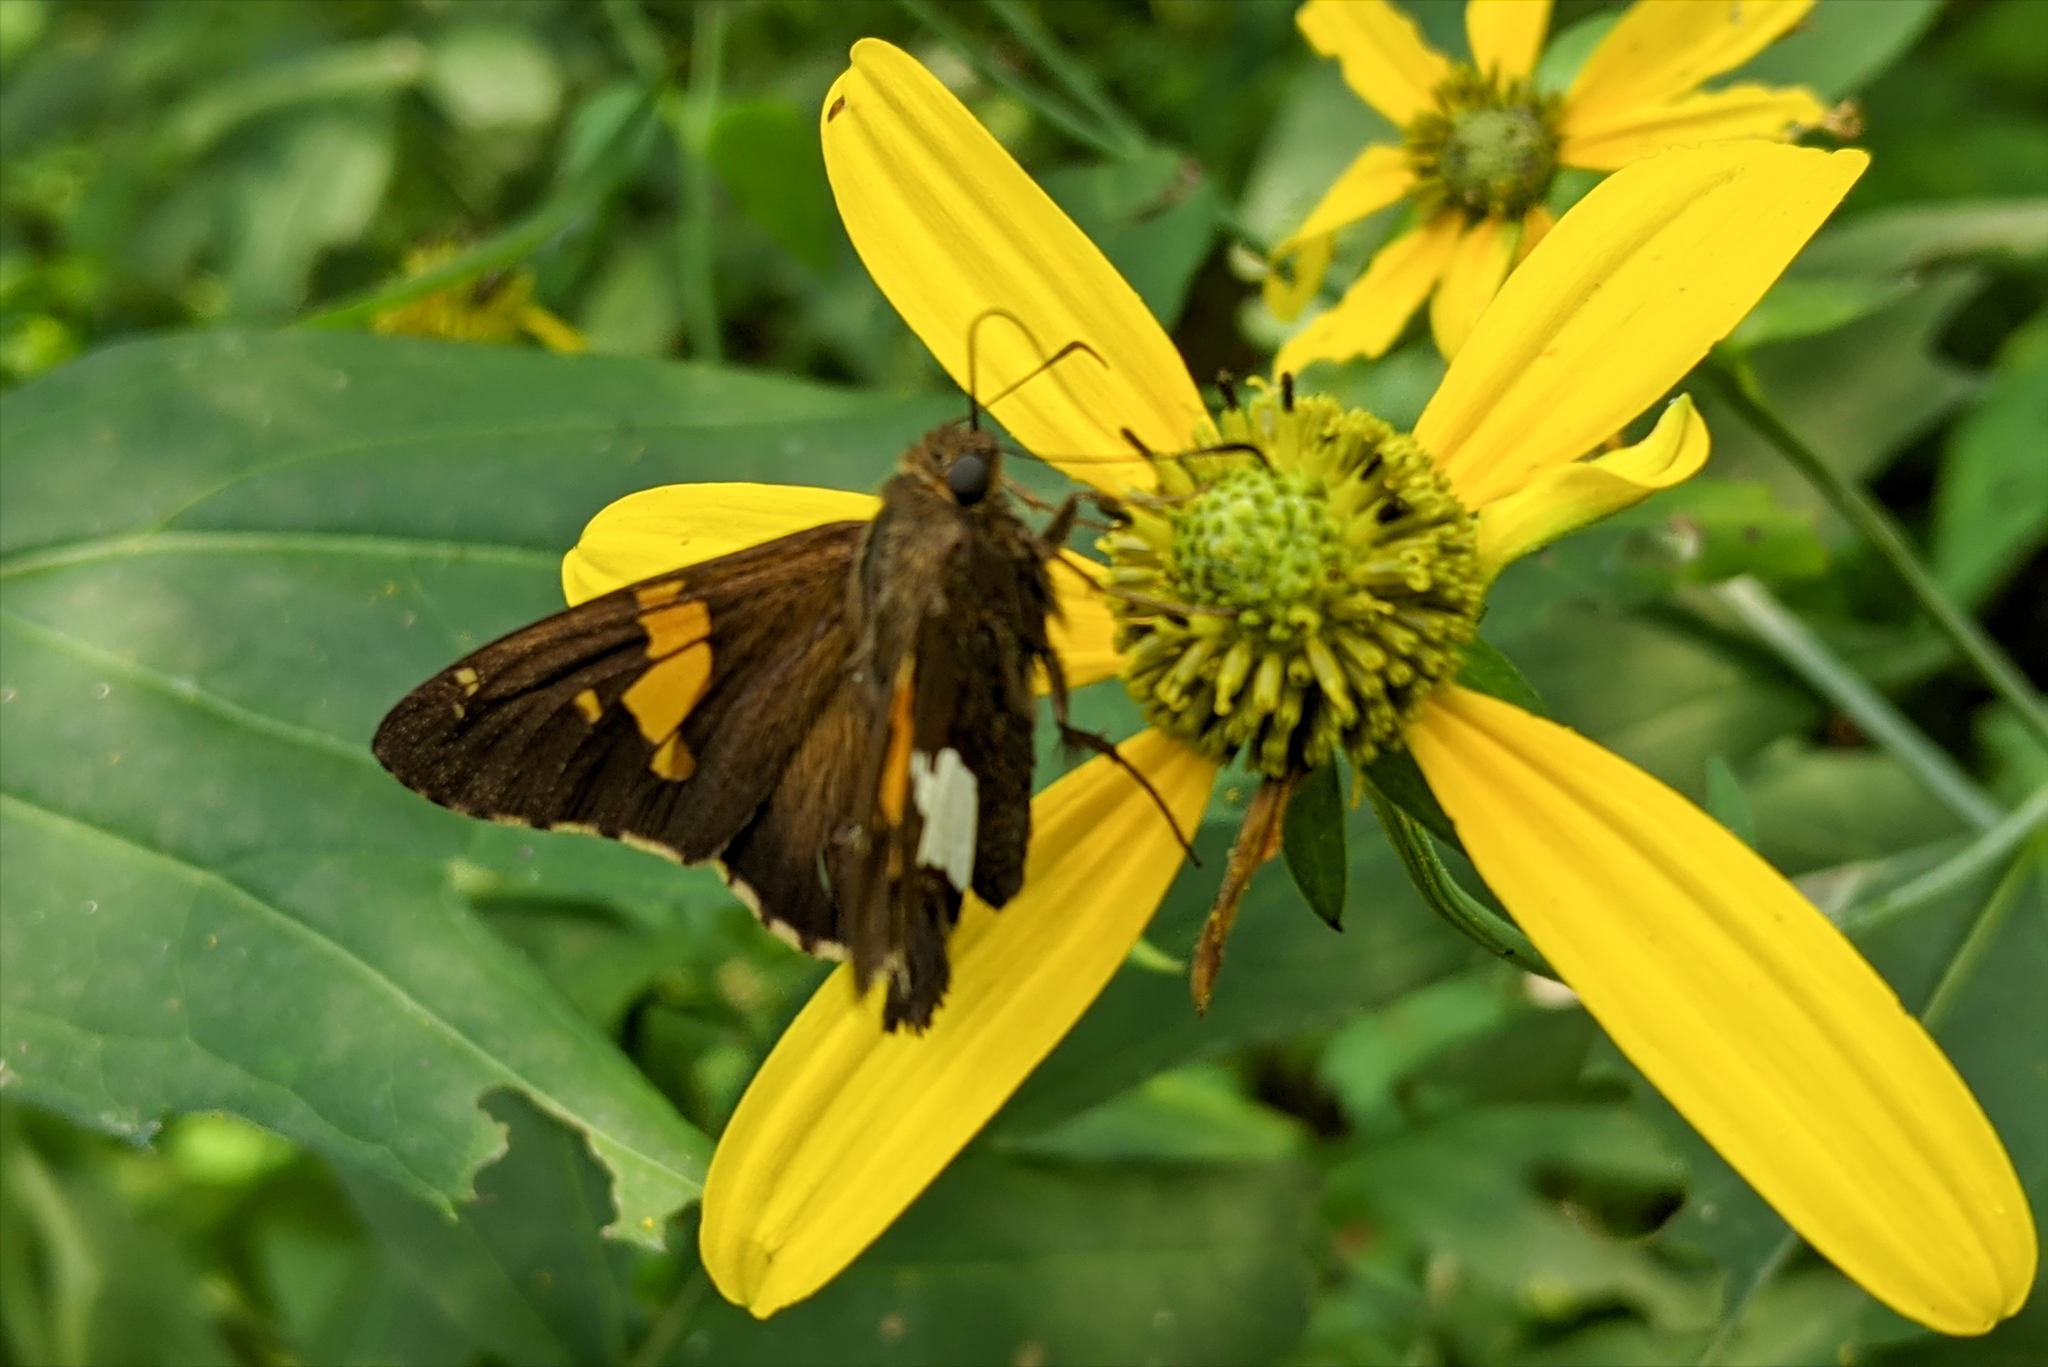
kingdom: Animalia
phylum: Arthropoda
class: Insecta
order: Lepidoptera
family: Hesperiidae
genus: Epargyreus
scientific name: Epargyreus clarus
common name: Silver-spotted skipper
